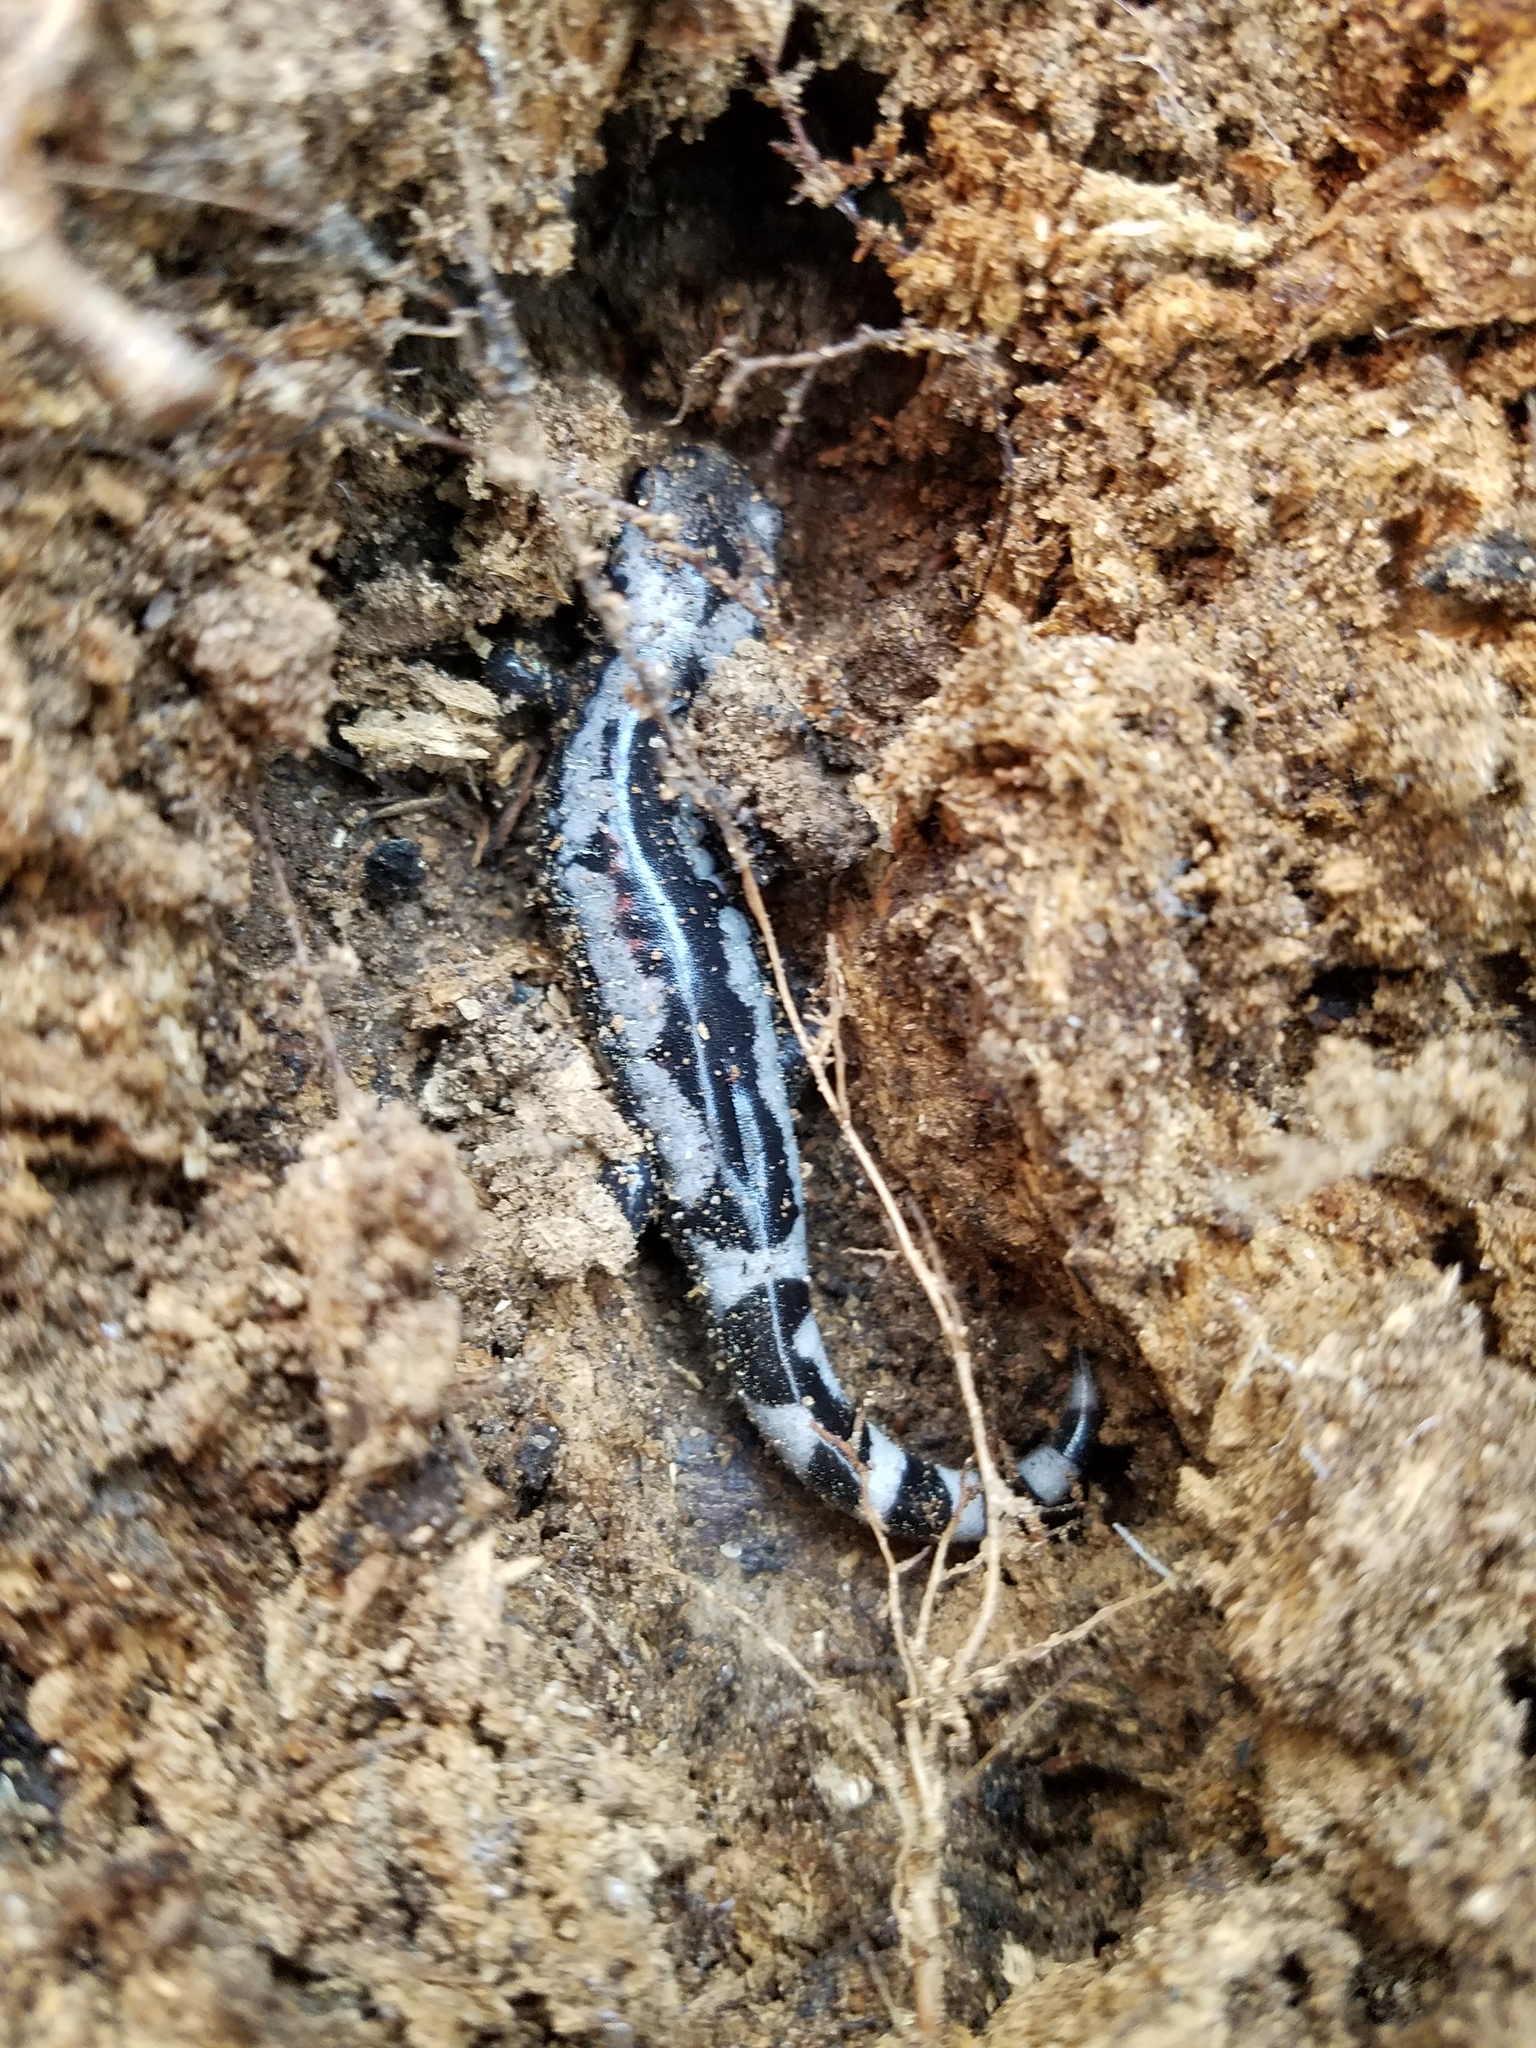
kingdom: Animalia
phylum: Chordata
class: Amphibia
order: Caudata
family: Ambystomatidae
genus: Ambystoma
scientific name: Ambystoma opacum
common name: Marbled salamander
